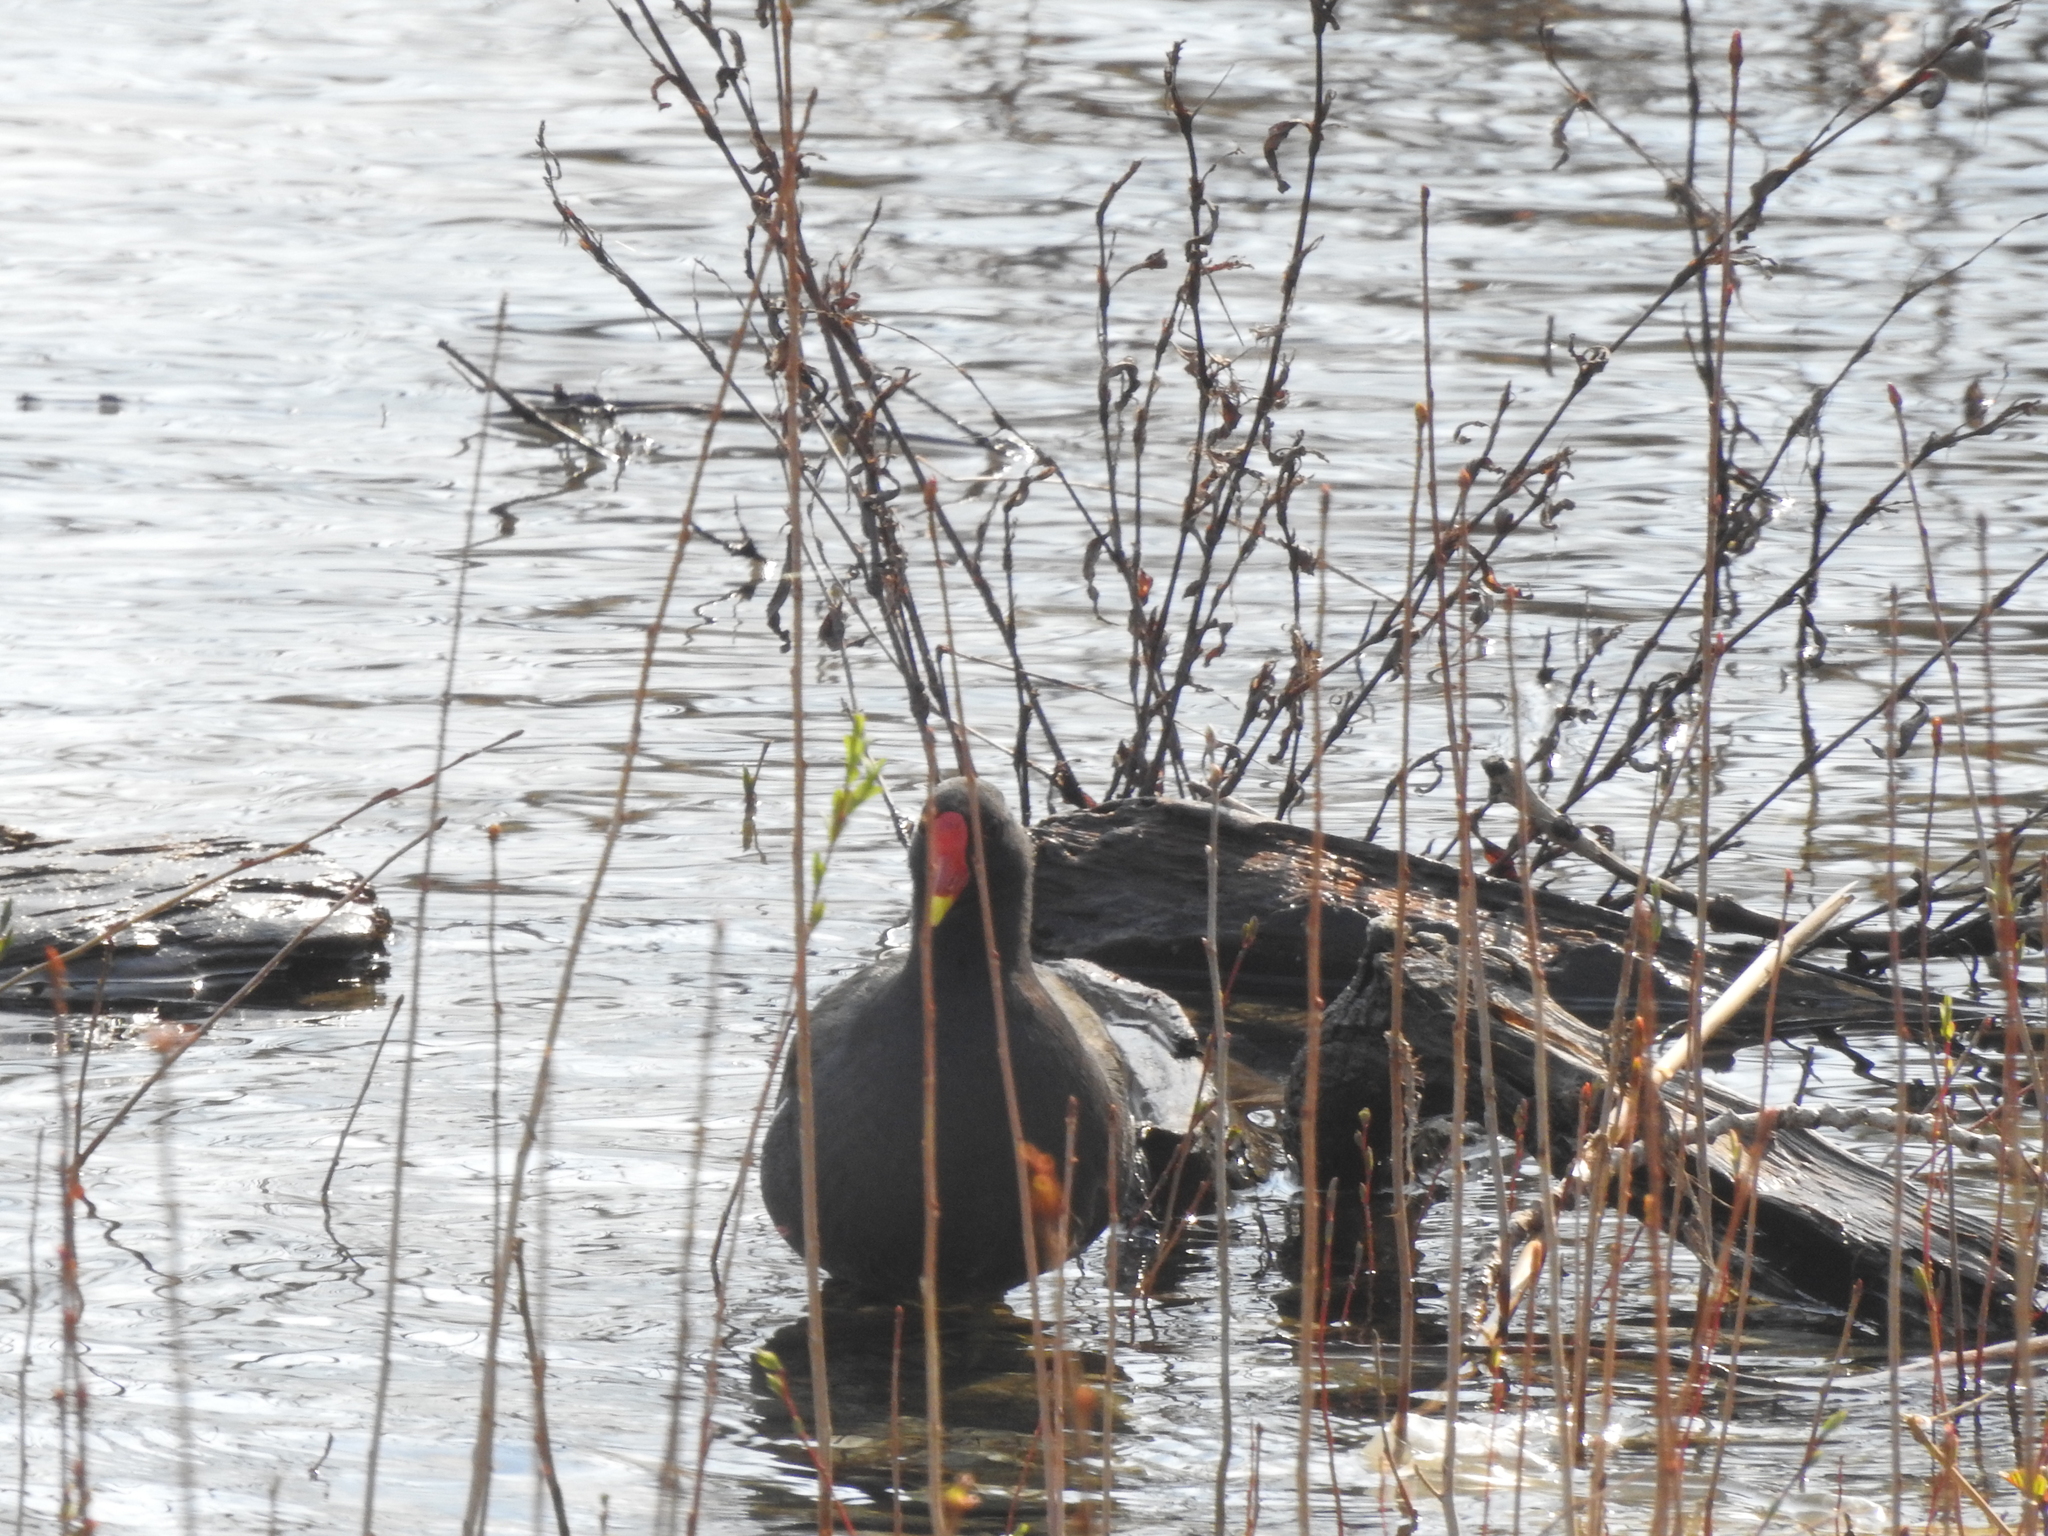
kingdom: Animalia
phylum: Chordata
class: Aves
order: Gruiformes
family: Rallidae
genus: Gallinula
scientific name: Gallinula chloropus
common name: Common moorhen
